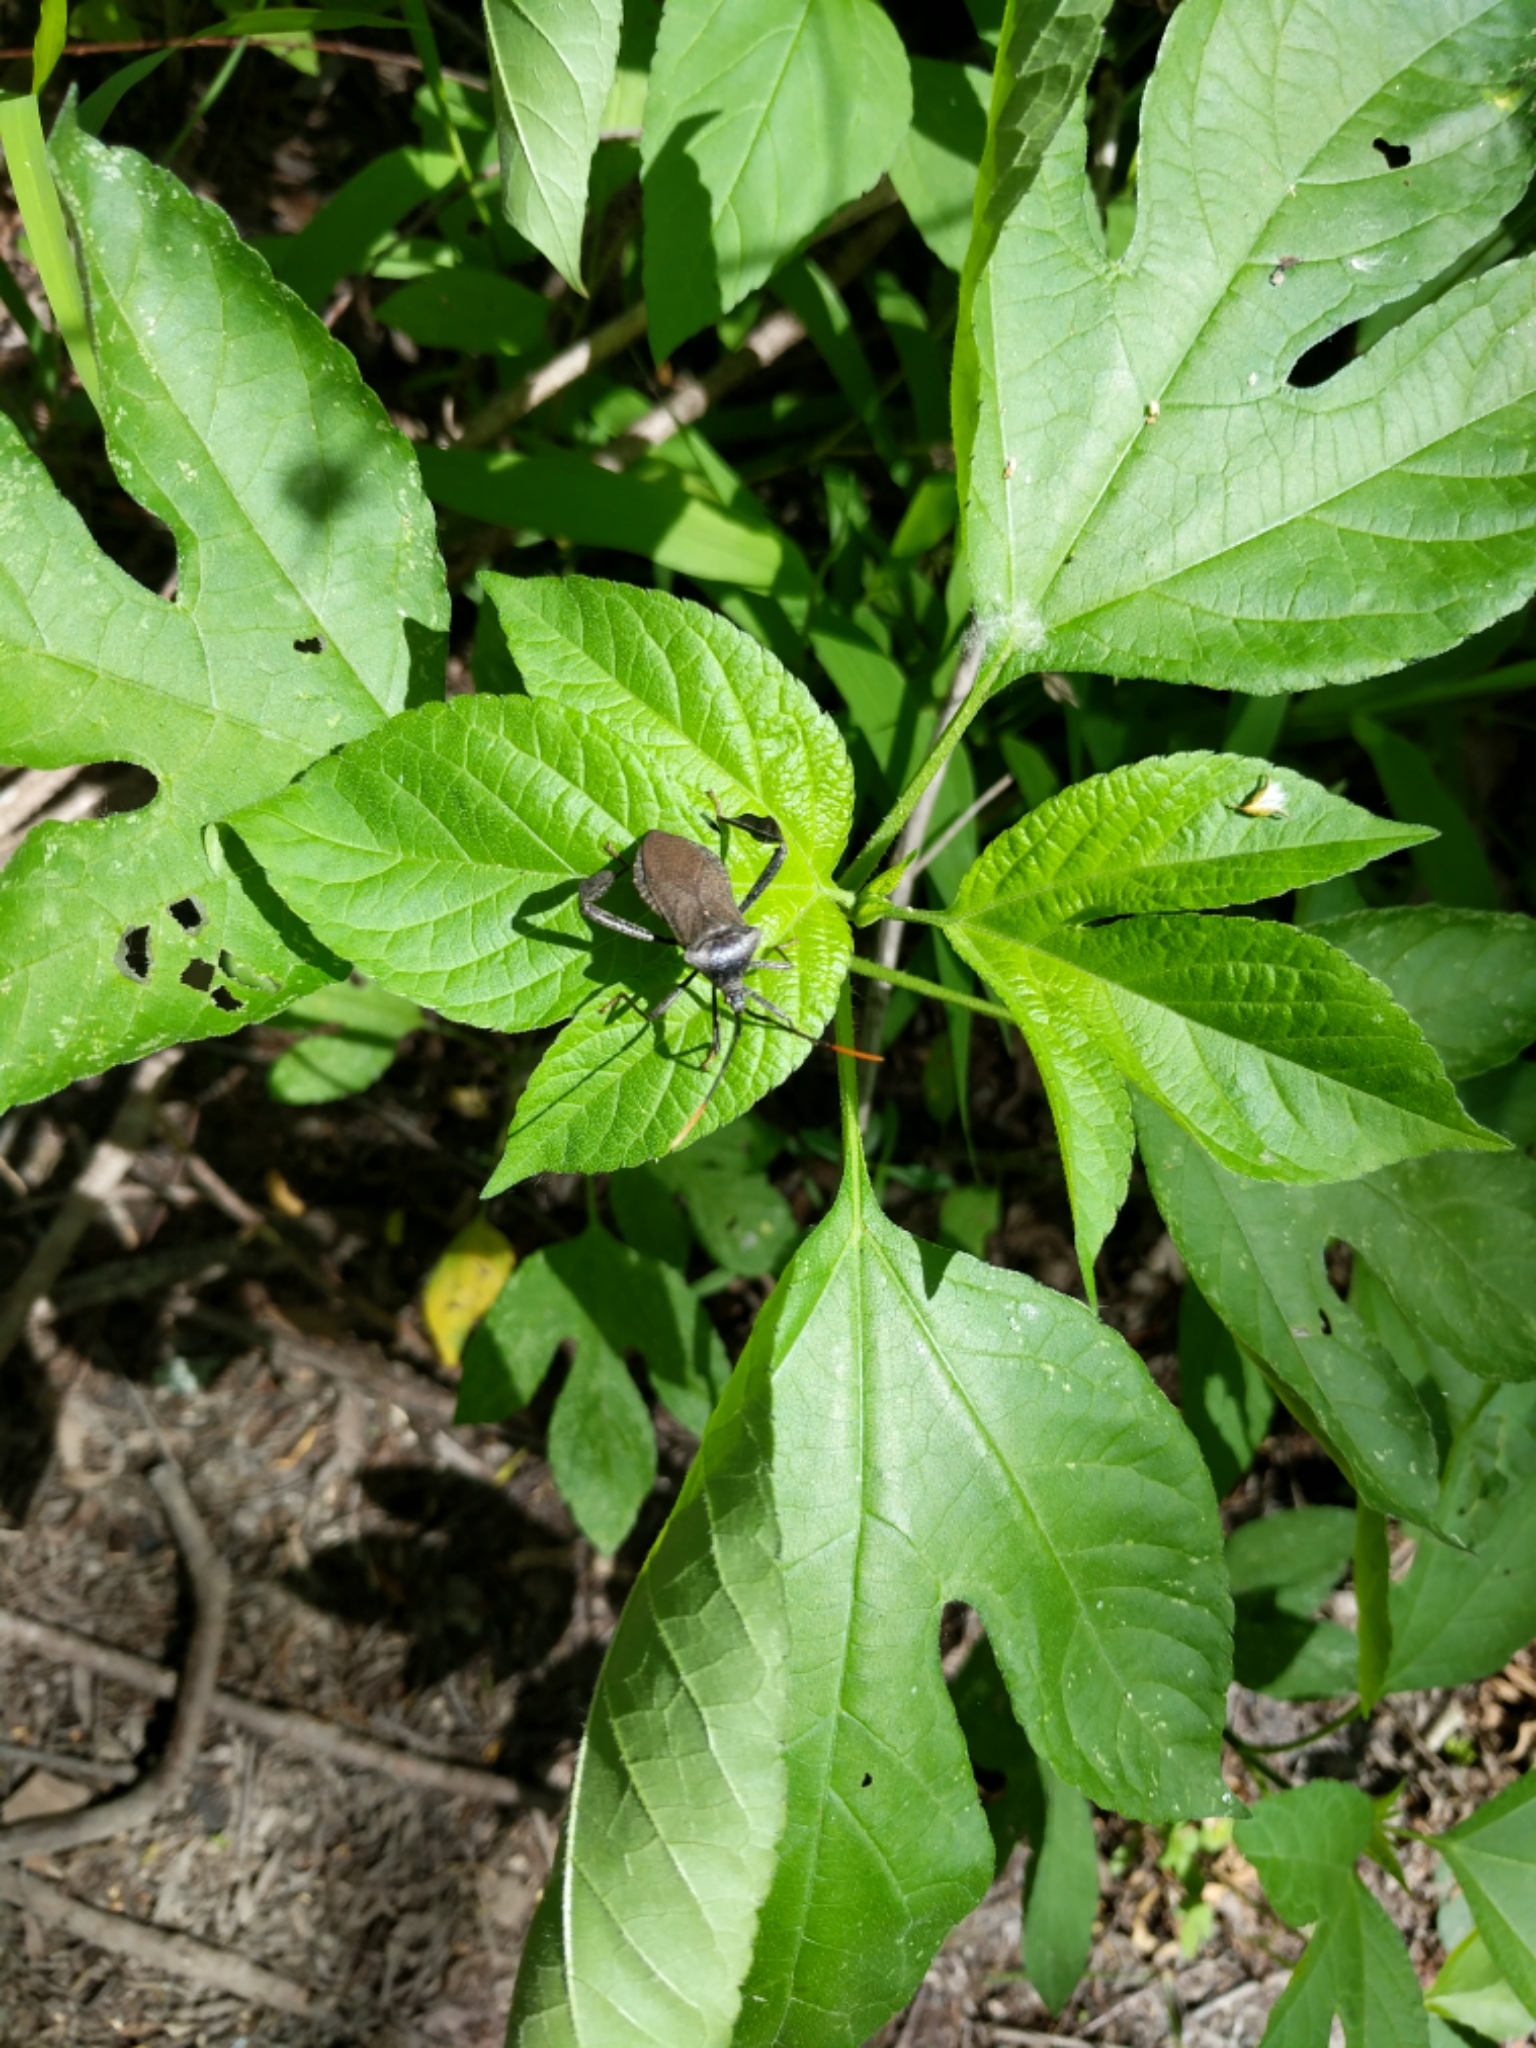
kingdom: Animalia
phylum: Arthropoda
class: Insecta
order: Hemiptera
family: Coreidae
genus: Acanthocephala
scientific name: Acanthocephala terminalis
